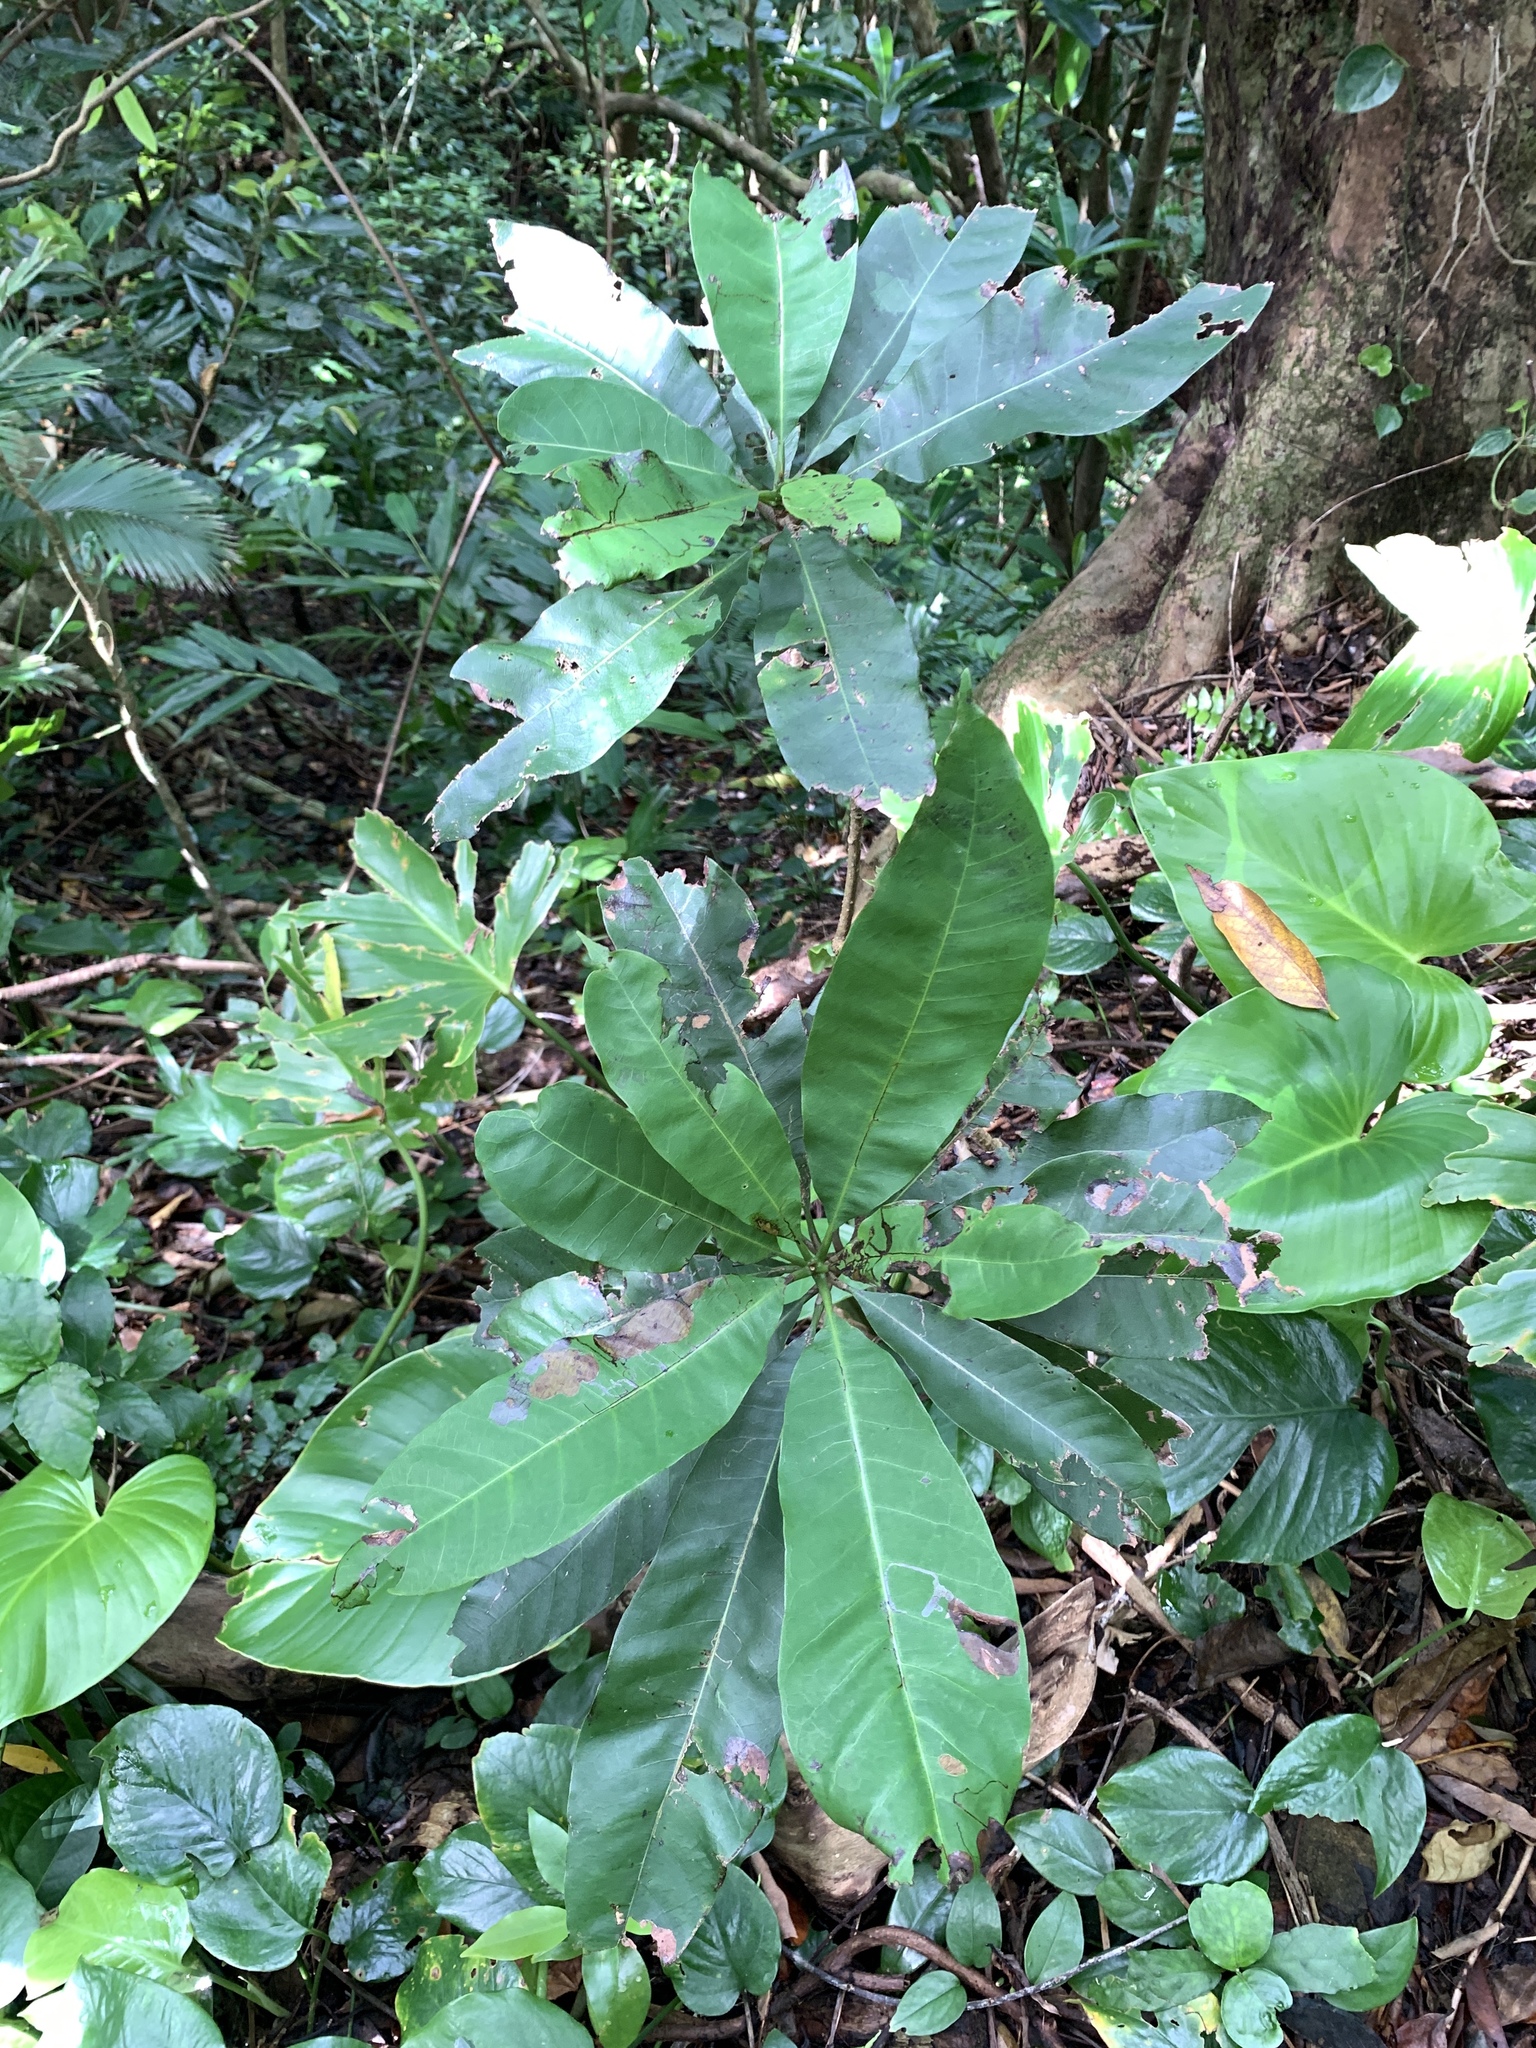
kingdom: Plantae
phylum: Tracheophyta
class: Magnoliopsida
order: Sapindales
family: Anacardiaceae
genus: Semecarpus
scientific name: Semecarpus cuneiformis
